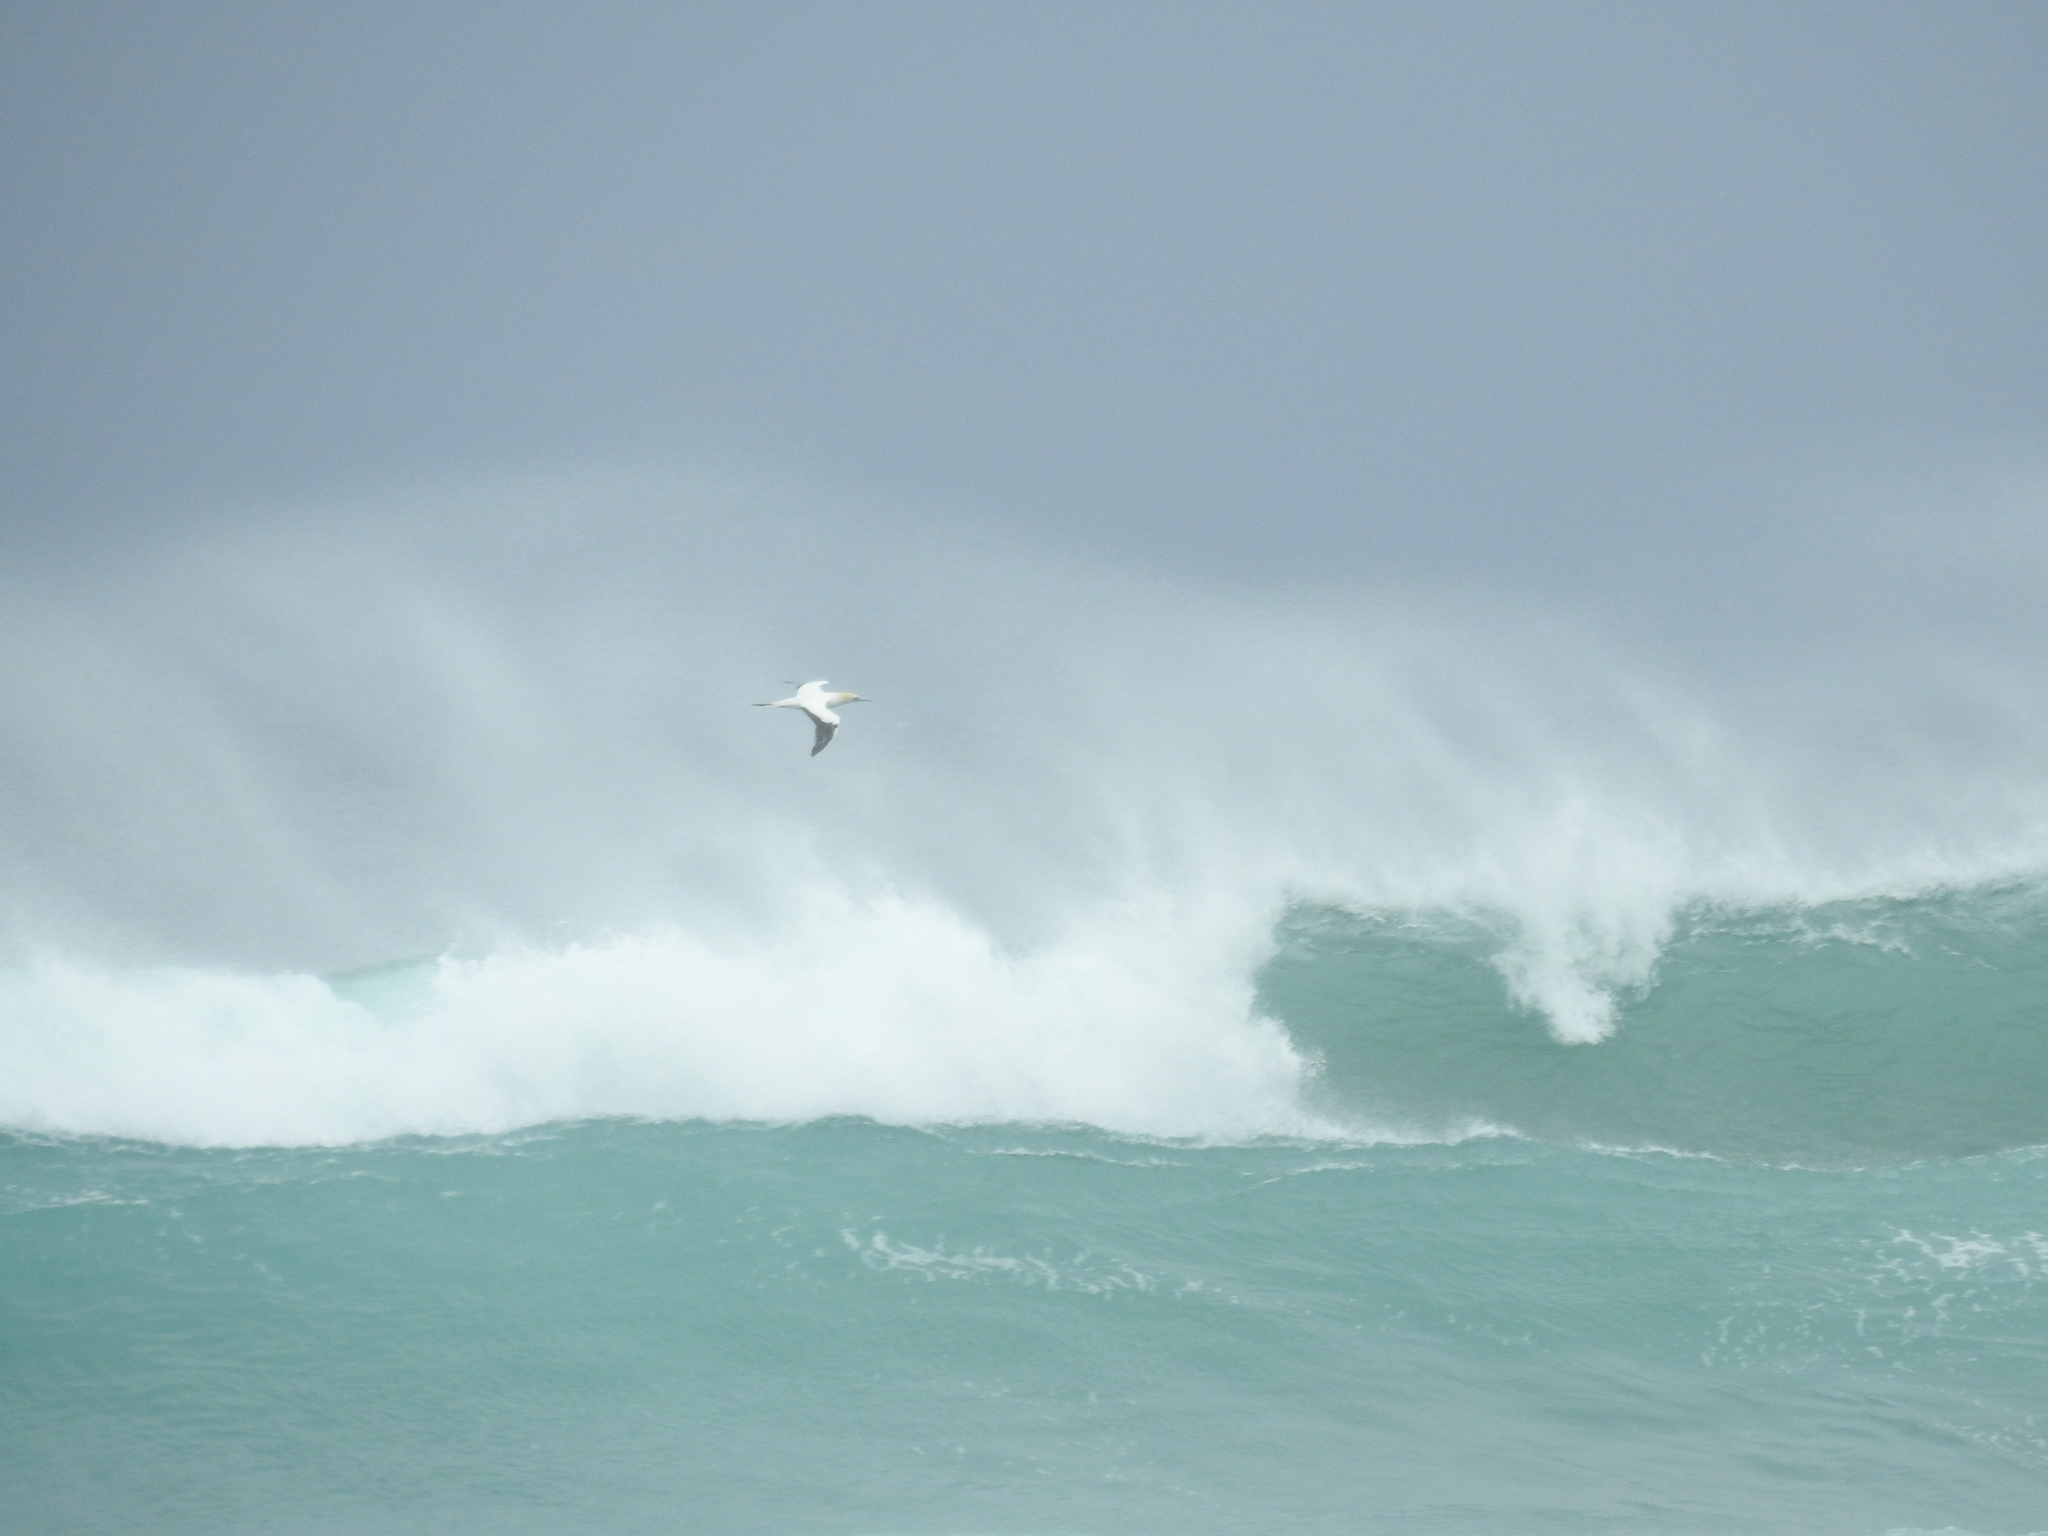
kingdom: Animalia
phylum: Chordata
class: Aves
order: Suliformes
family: Sulidae
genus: Morus
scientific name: Morus serrator
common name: Australasian gannet
